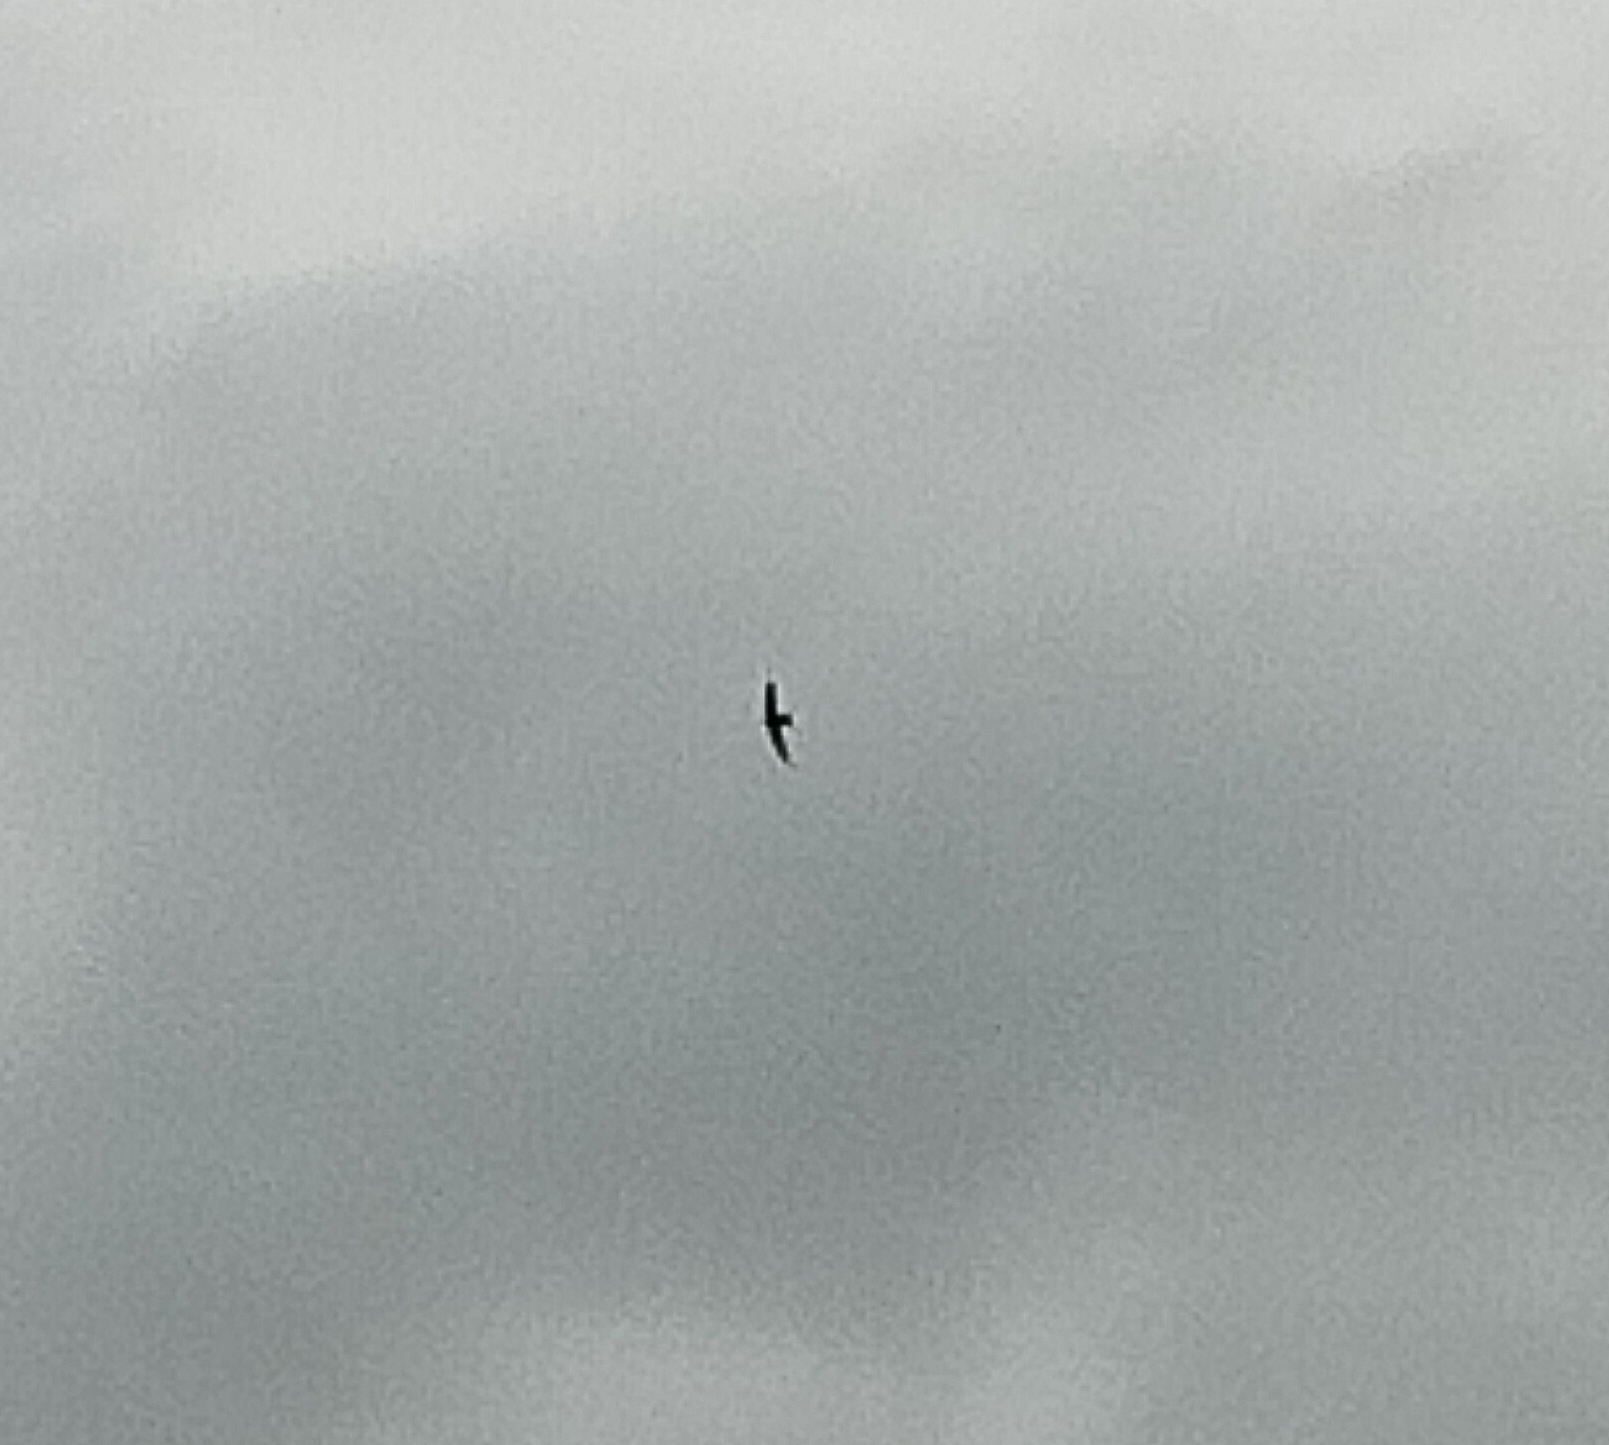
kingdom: Animalia
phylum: Chordata
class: Aves
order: Apodiformes
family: Apodidae
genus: Apus
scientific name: Apus apus
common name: Common swift
